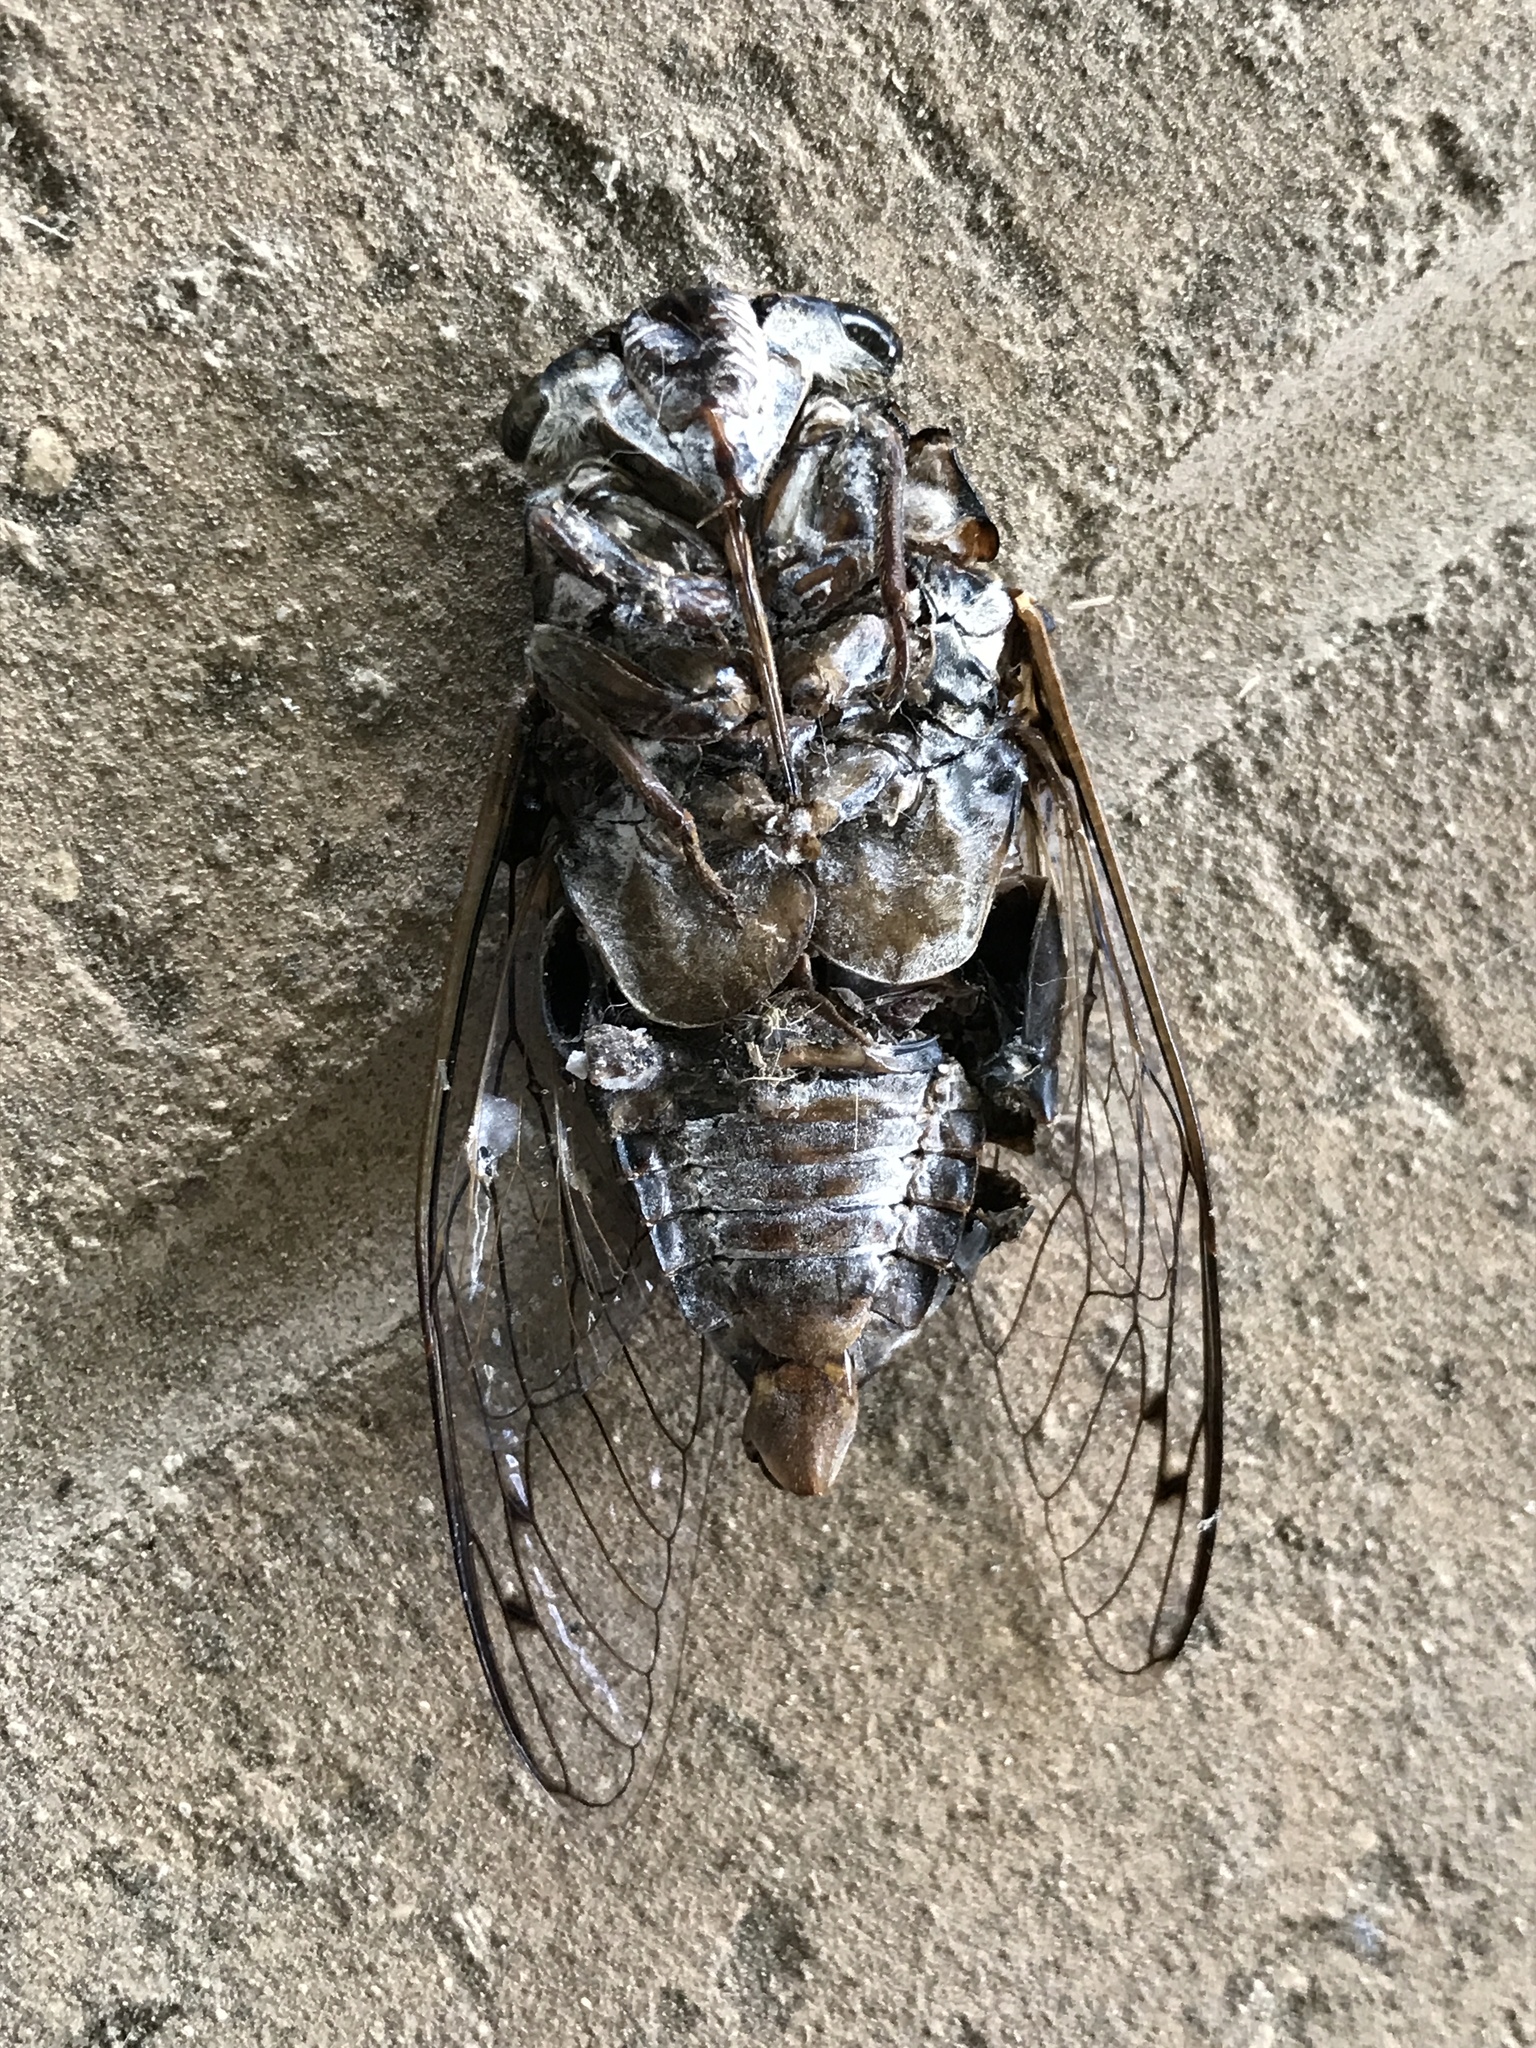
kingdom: Animalia
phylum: Arthropoda
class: Insecta
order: Hemiptera
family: Cicadidae
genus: Megatibicen
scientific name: Megatibicen figuratus
